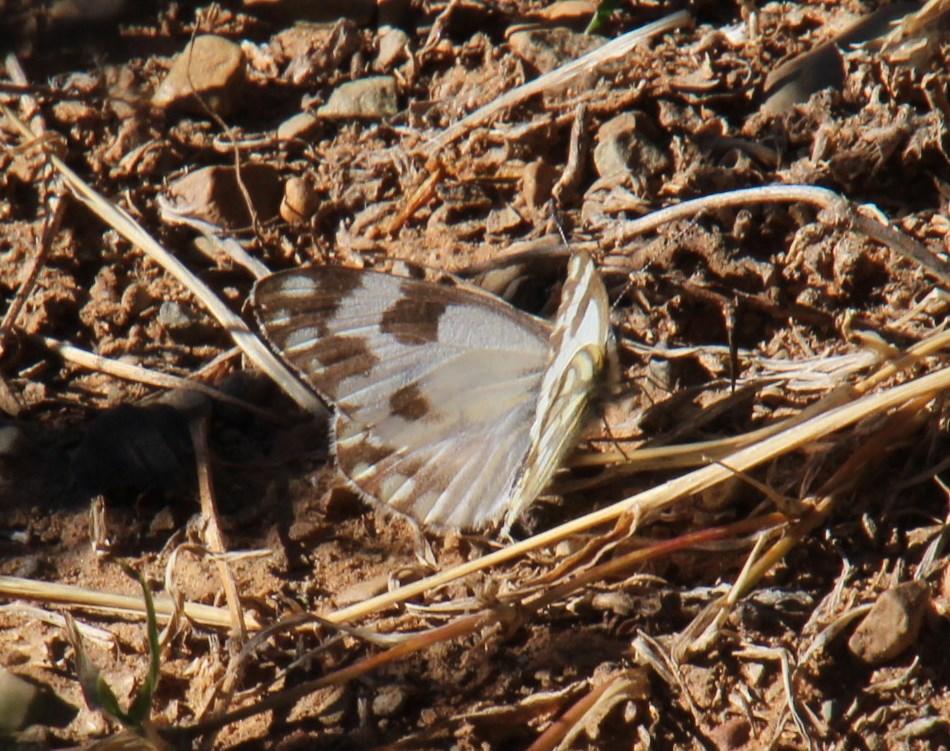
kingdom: Animalia
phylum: Arthropoda
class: Insecta
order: Lepidoptera
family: Pieridae
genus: Pontia
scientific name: Pontia helice
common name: Meadow white
